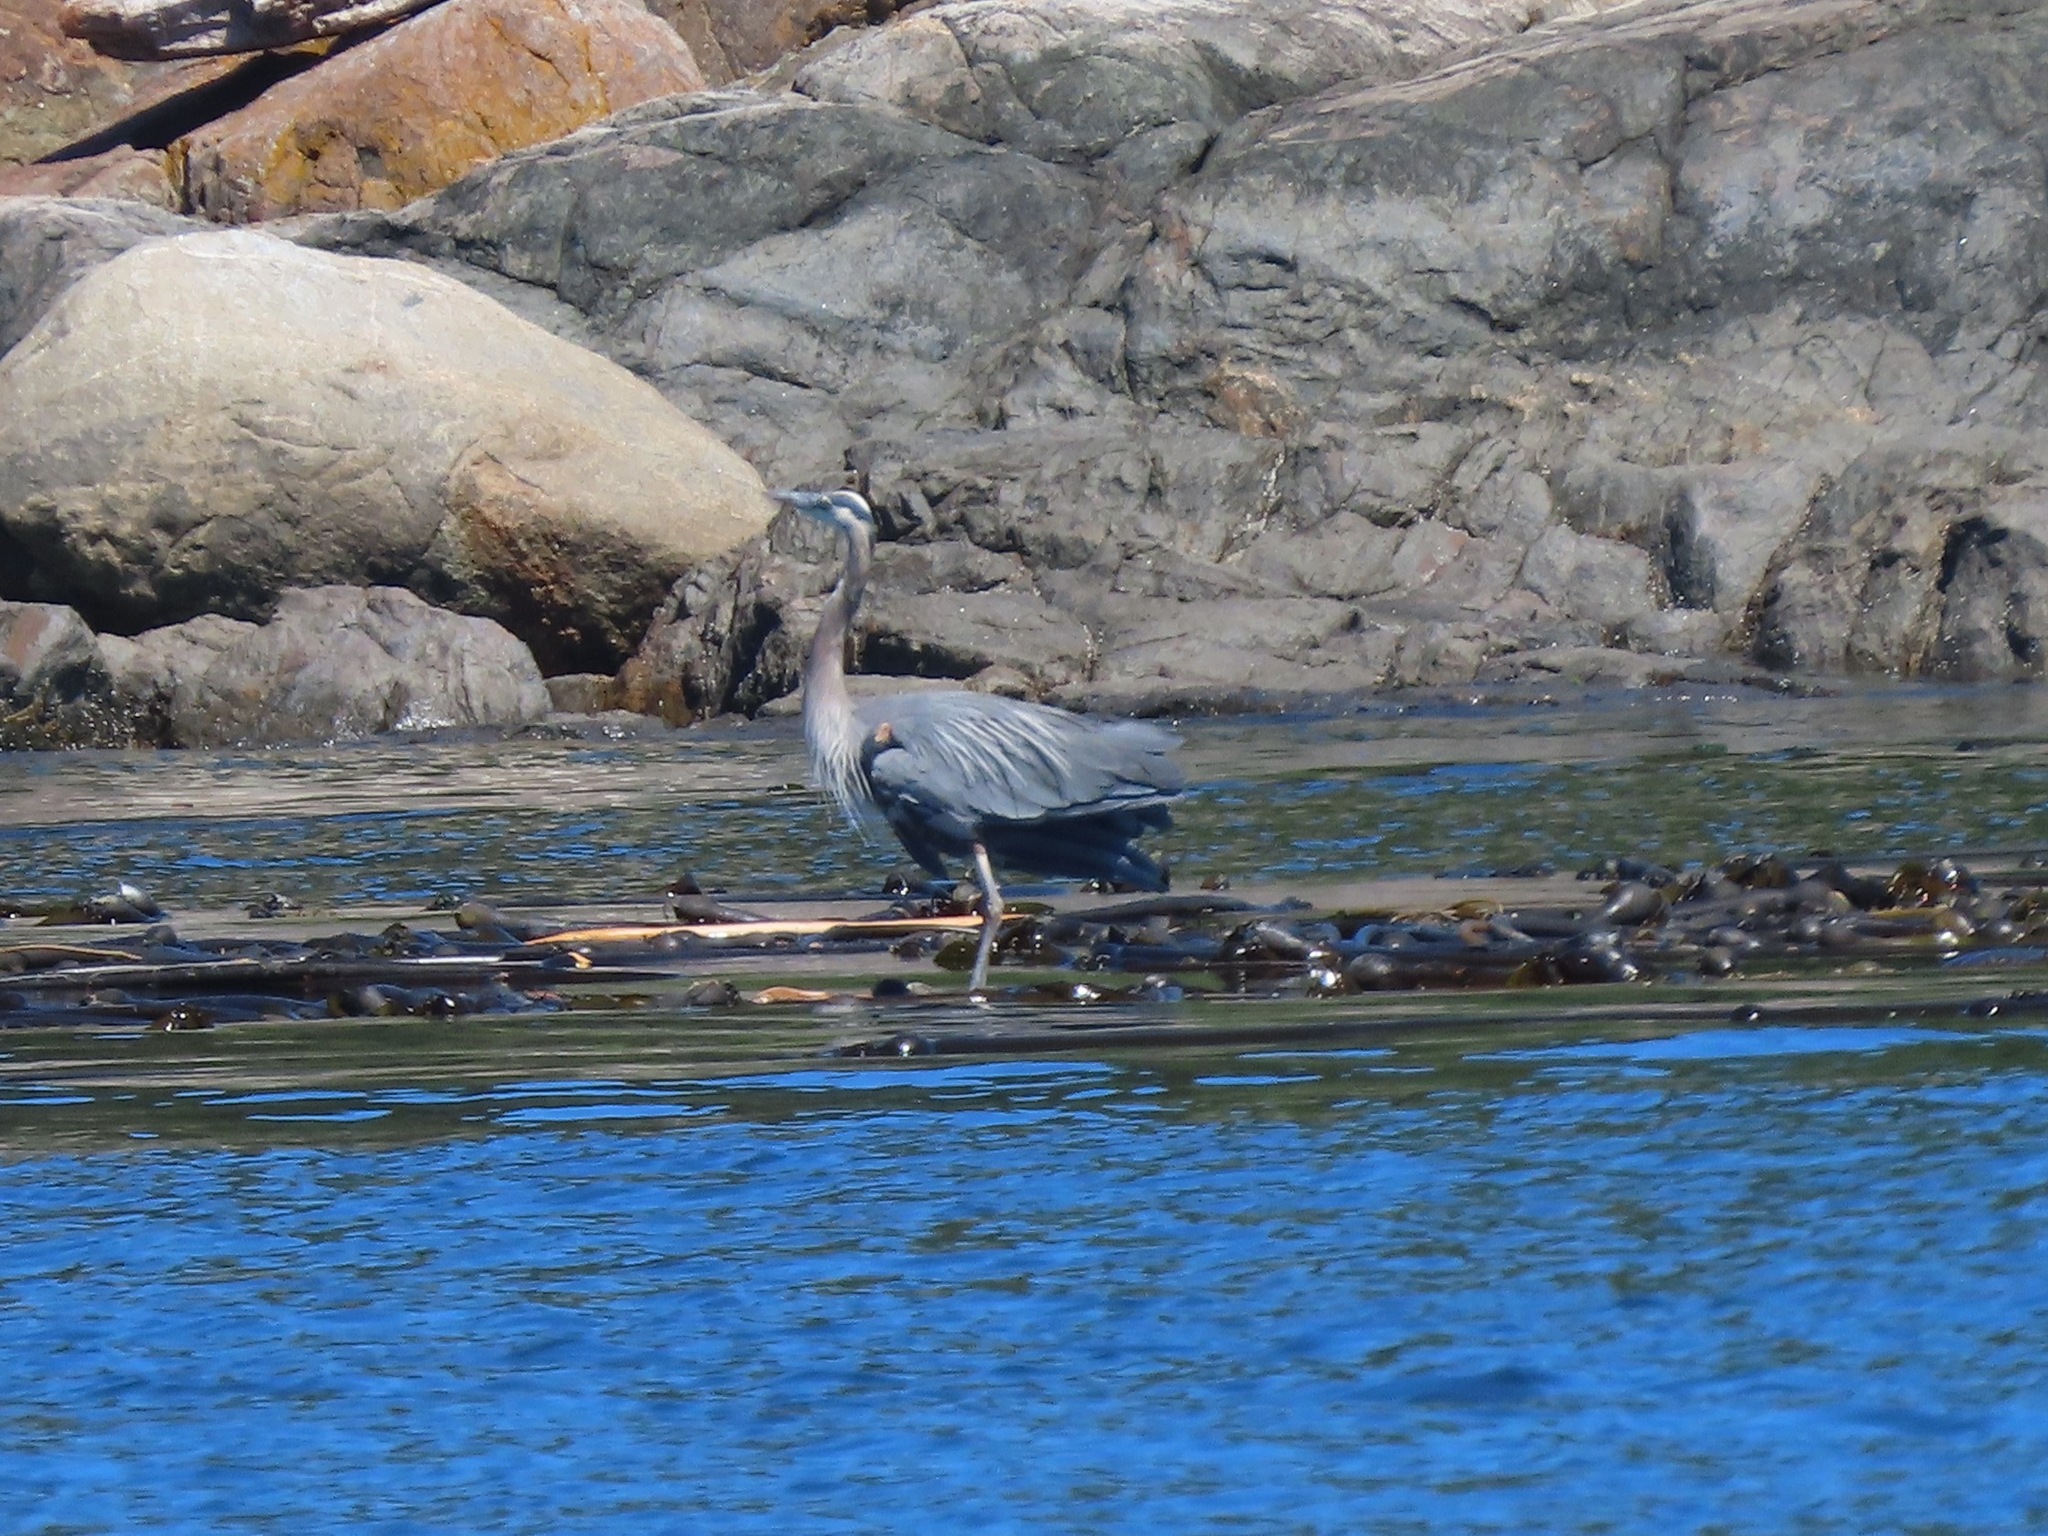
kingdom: Animalia
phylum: Chordata
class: Aves
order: Pelecaniformes
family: Ardeidae
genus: Ardea
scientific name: Ardea herodias
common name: Great blue heron
